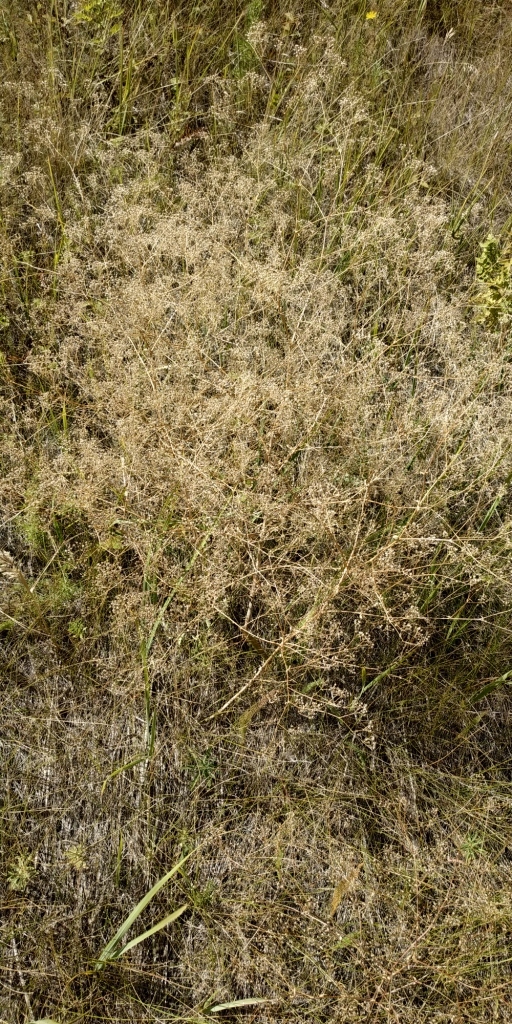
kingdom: Plantae
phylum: Tracheophyta
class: Magnoliopsida
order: Caryophyllales
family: Caryophyllaceae
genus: Gypsophila
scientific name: Gypsophila paniculata
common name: Baby's-breath
